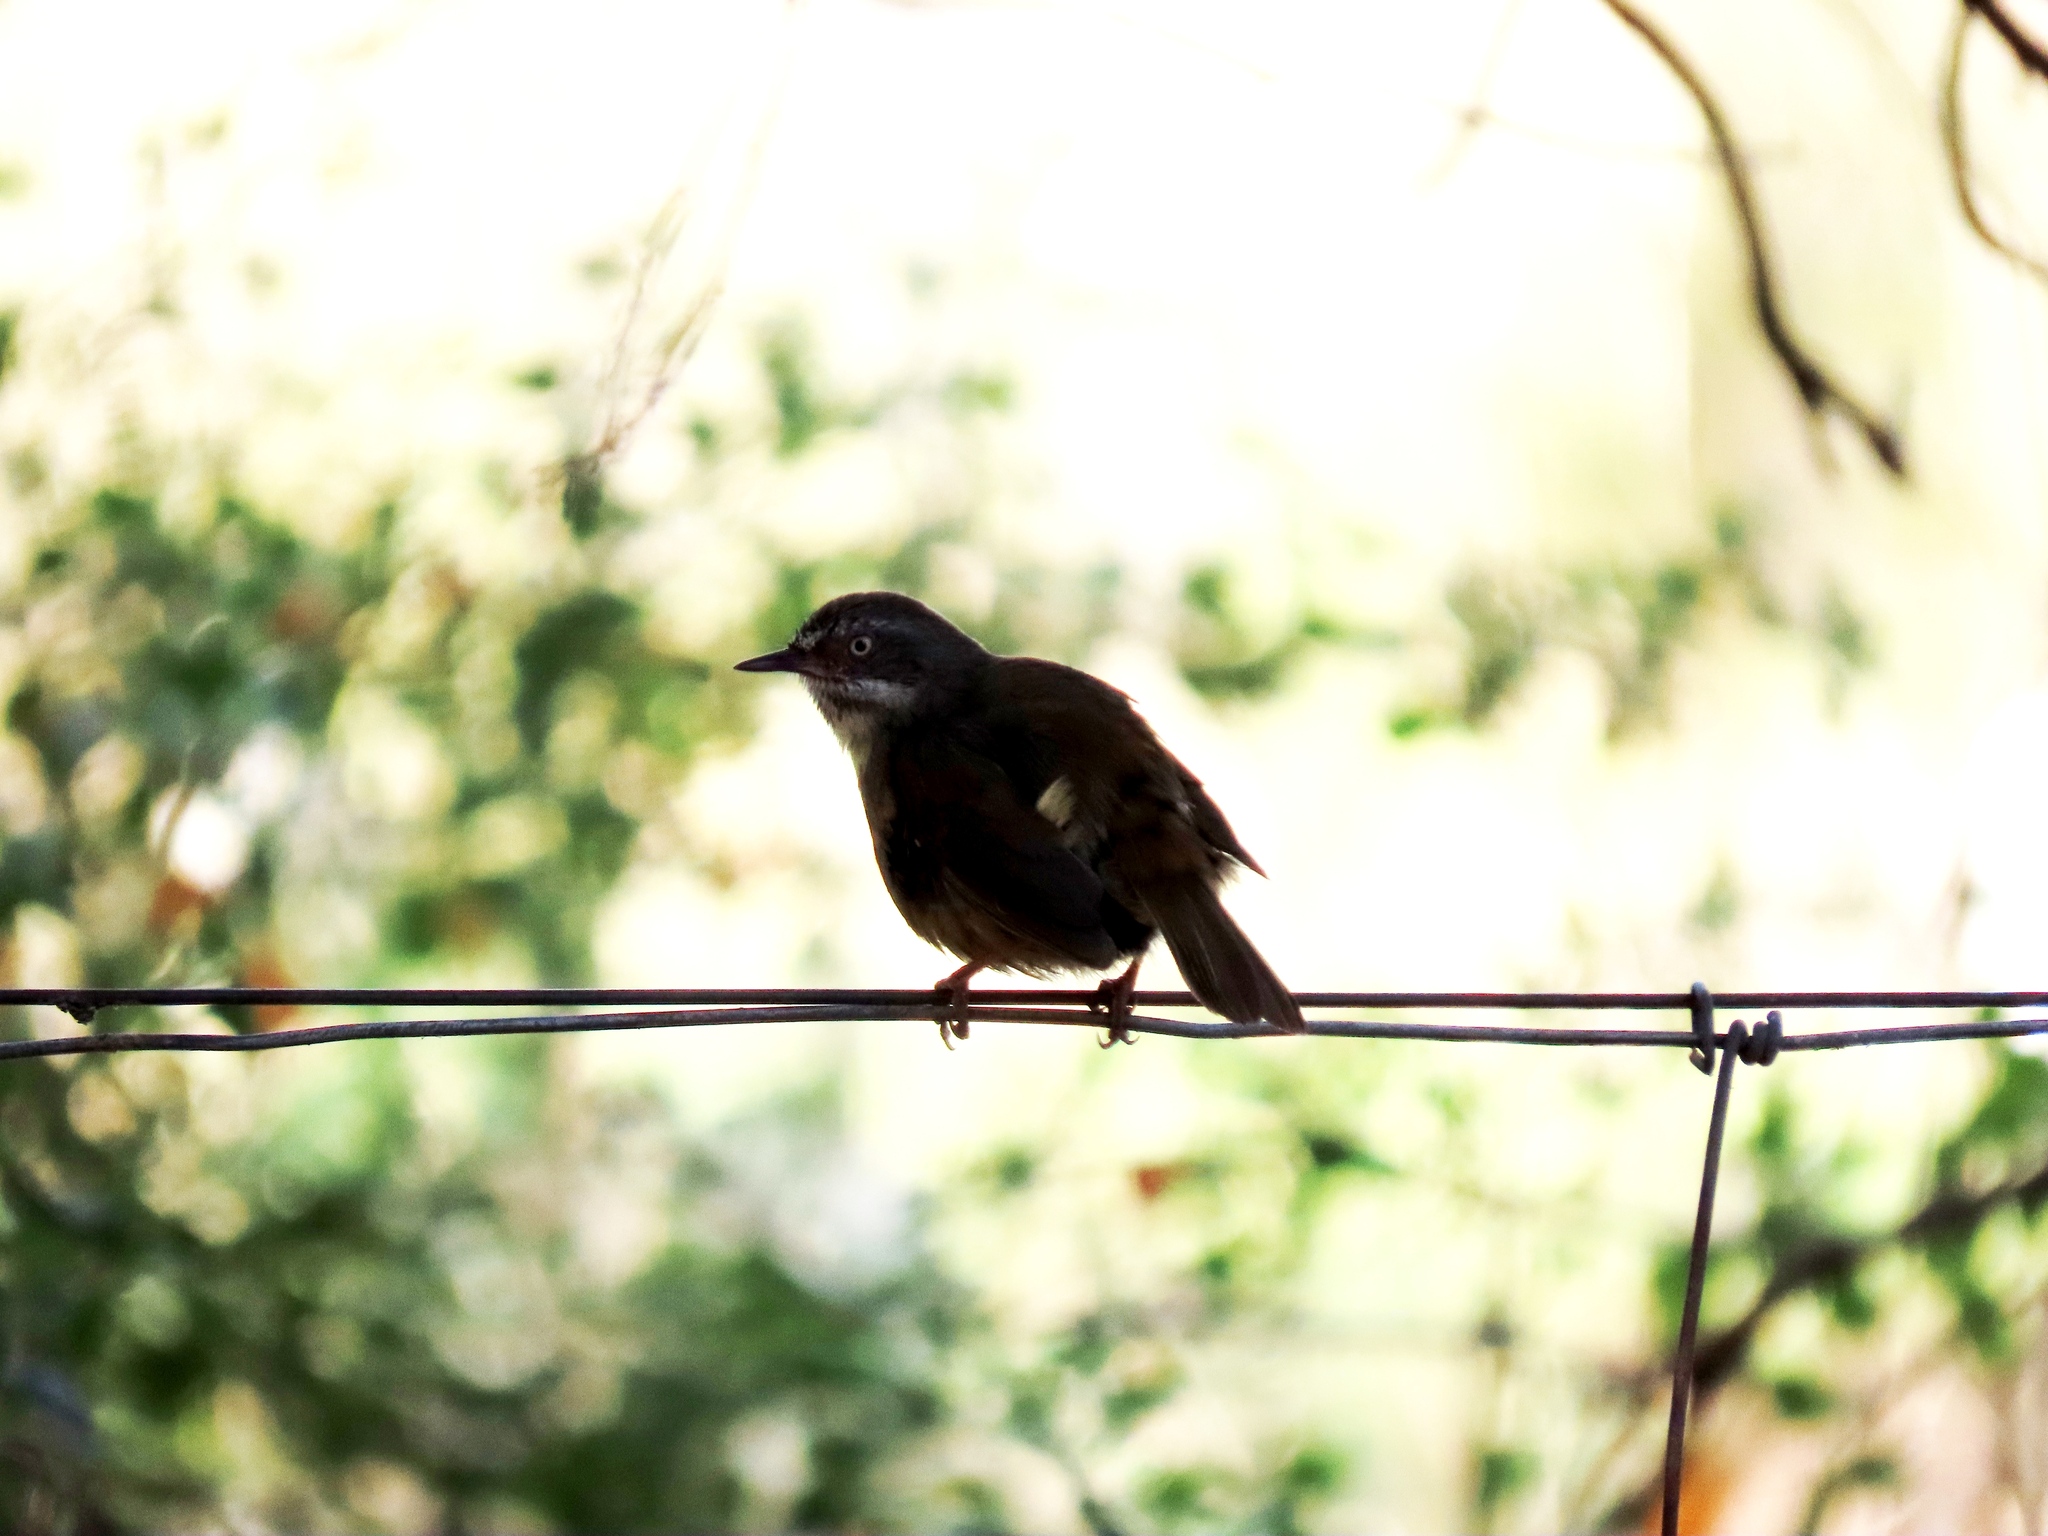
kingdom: Animalia
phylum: Chordata
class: Aves
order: Passeriformes
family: Acanthizidae
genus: Sericornis
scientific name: Sericornis frontalis
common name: White-browed scrubwren
